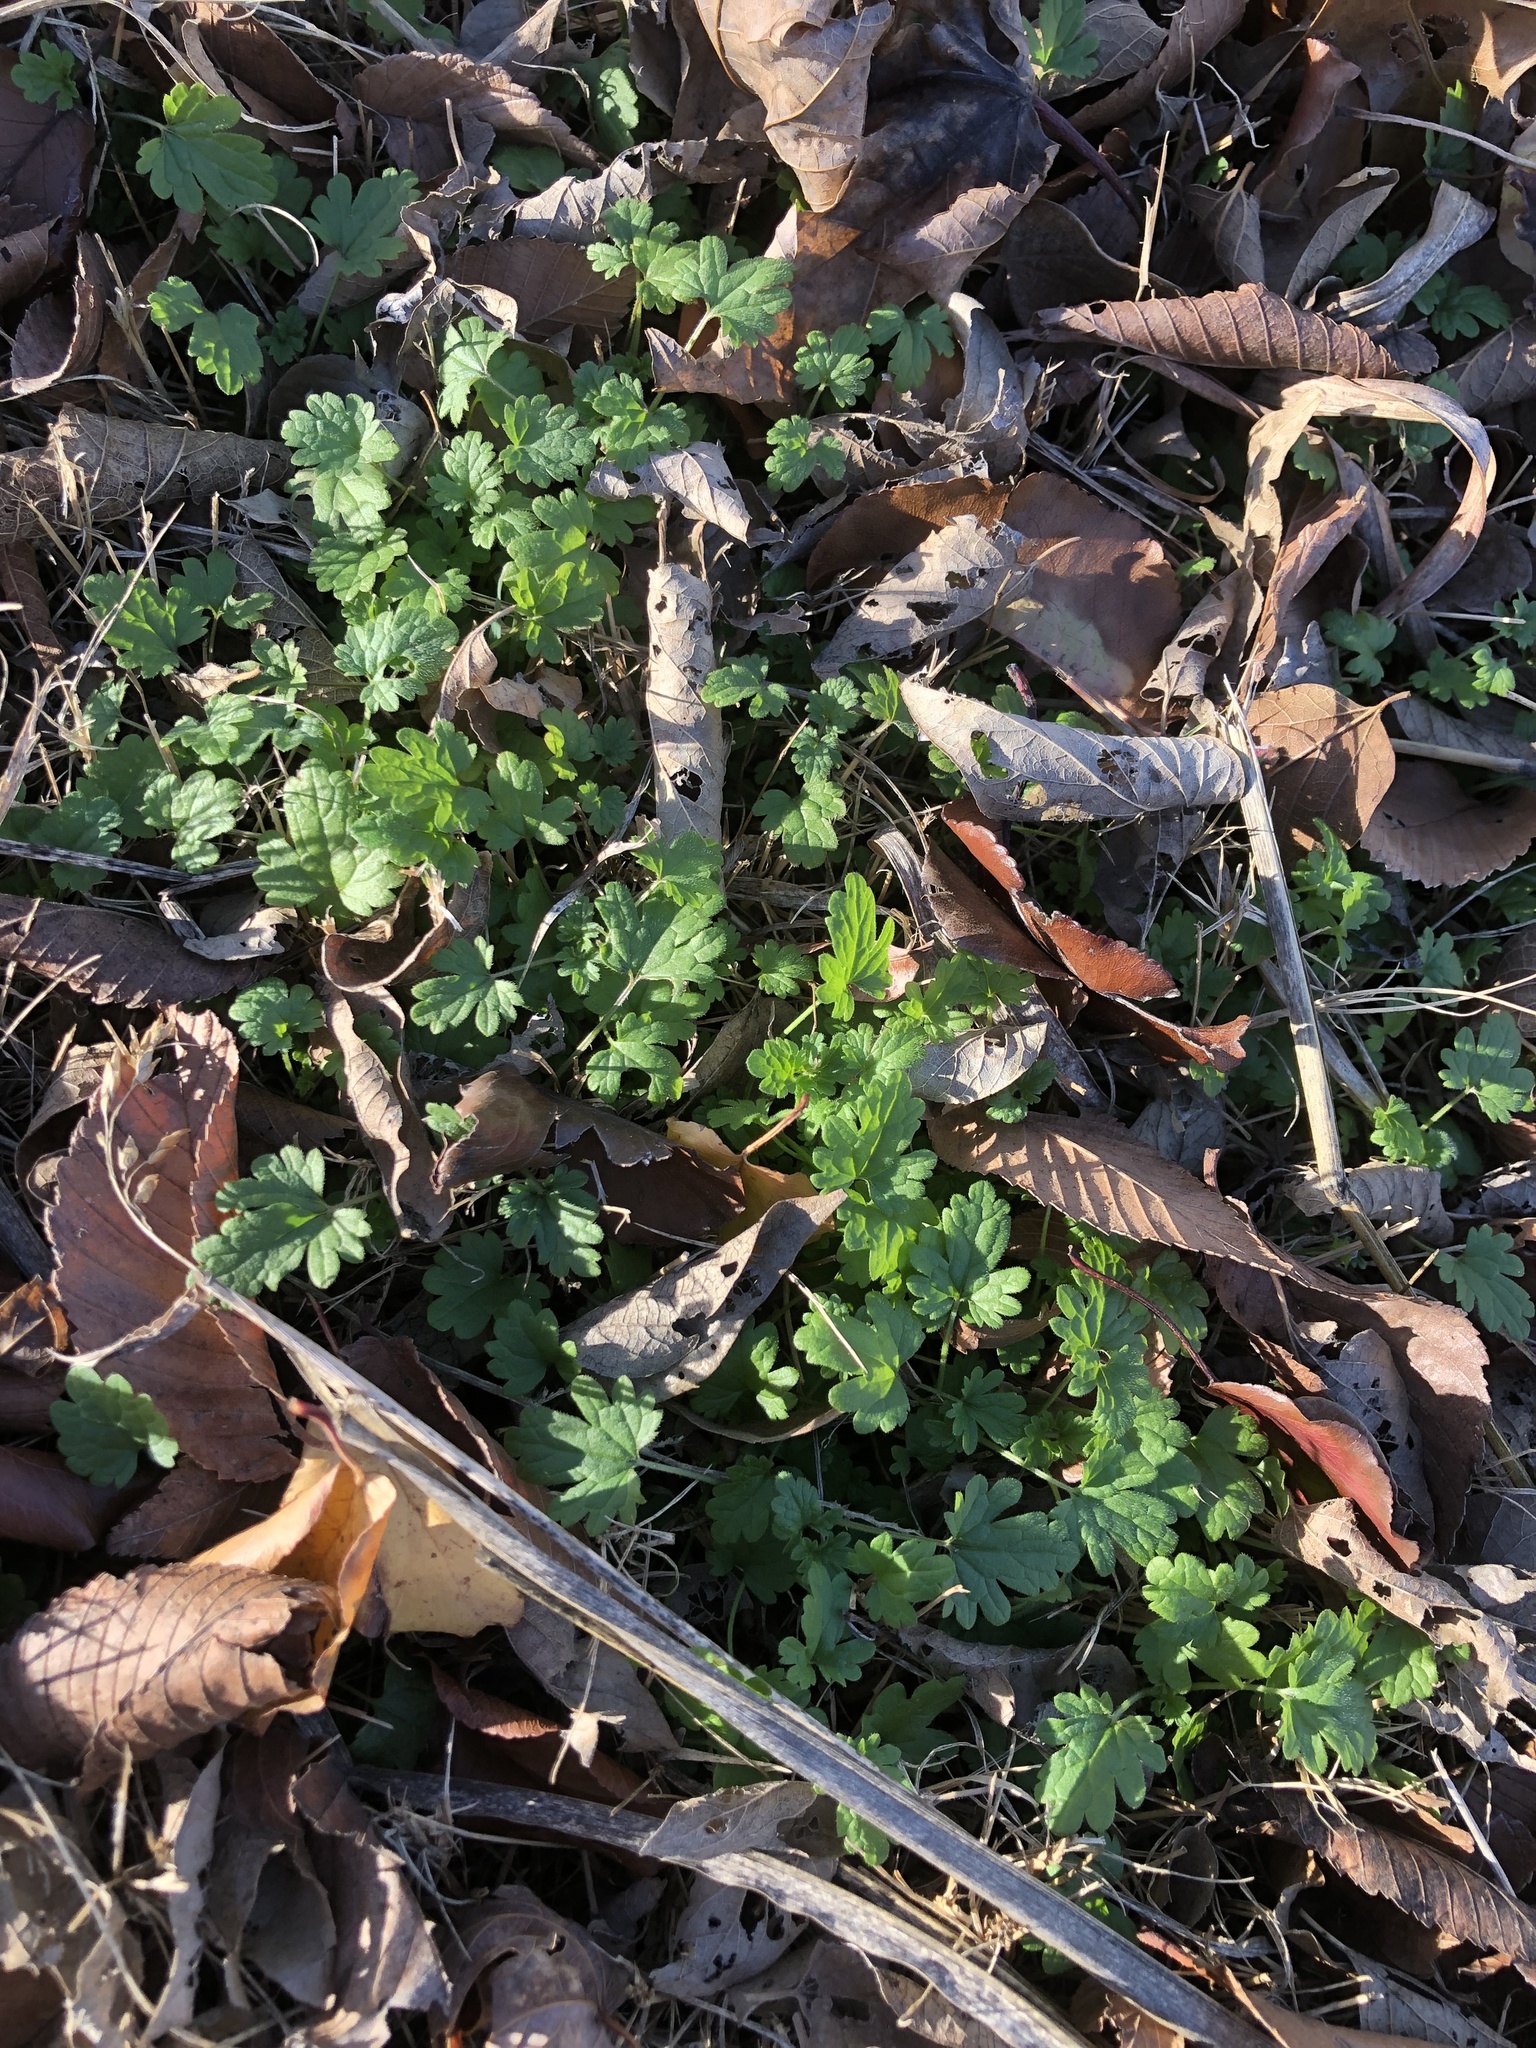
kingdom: Plantae
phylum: Tracheophyta
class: Magnoliopsida
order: Lamiales
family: Lamiaceae
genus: Lamium
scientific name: Lamium amplexicaule
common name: Henbit dead-nettle
